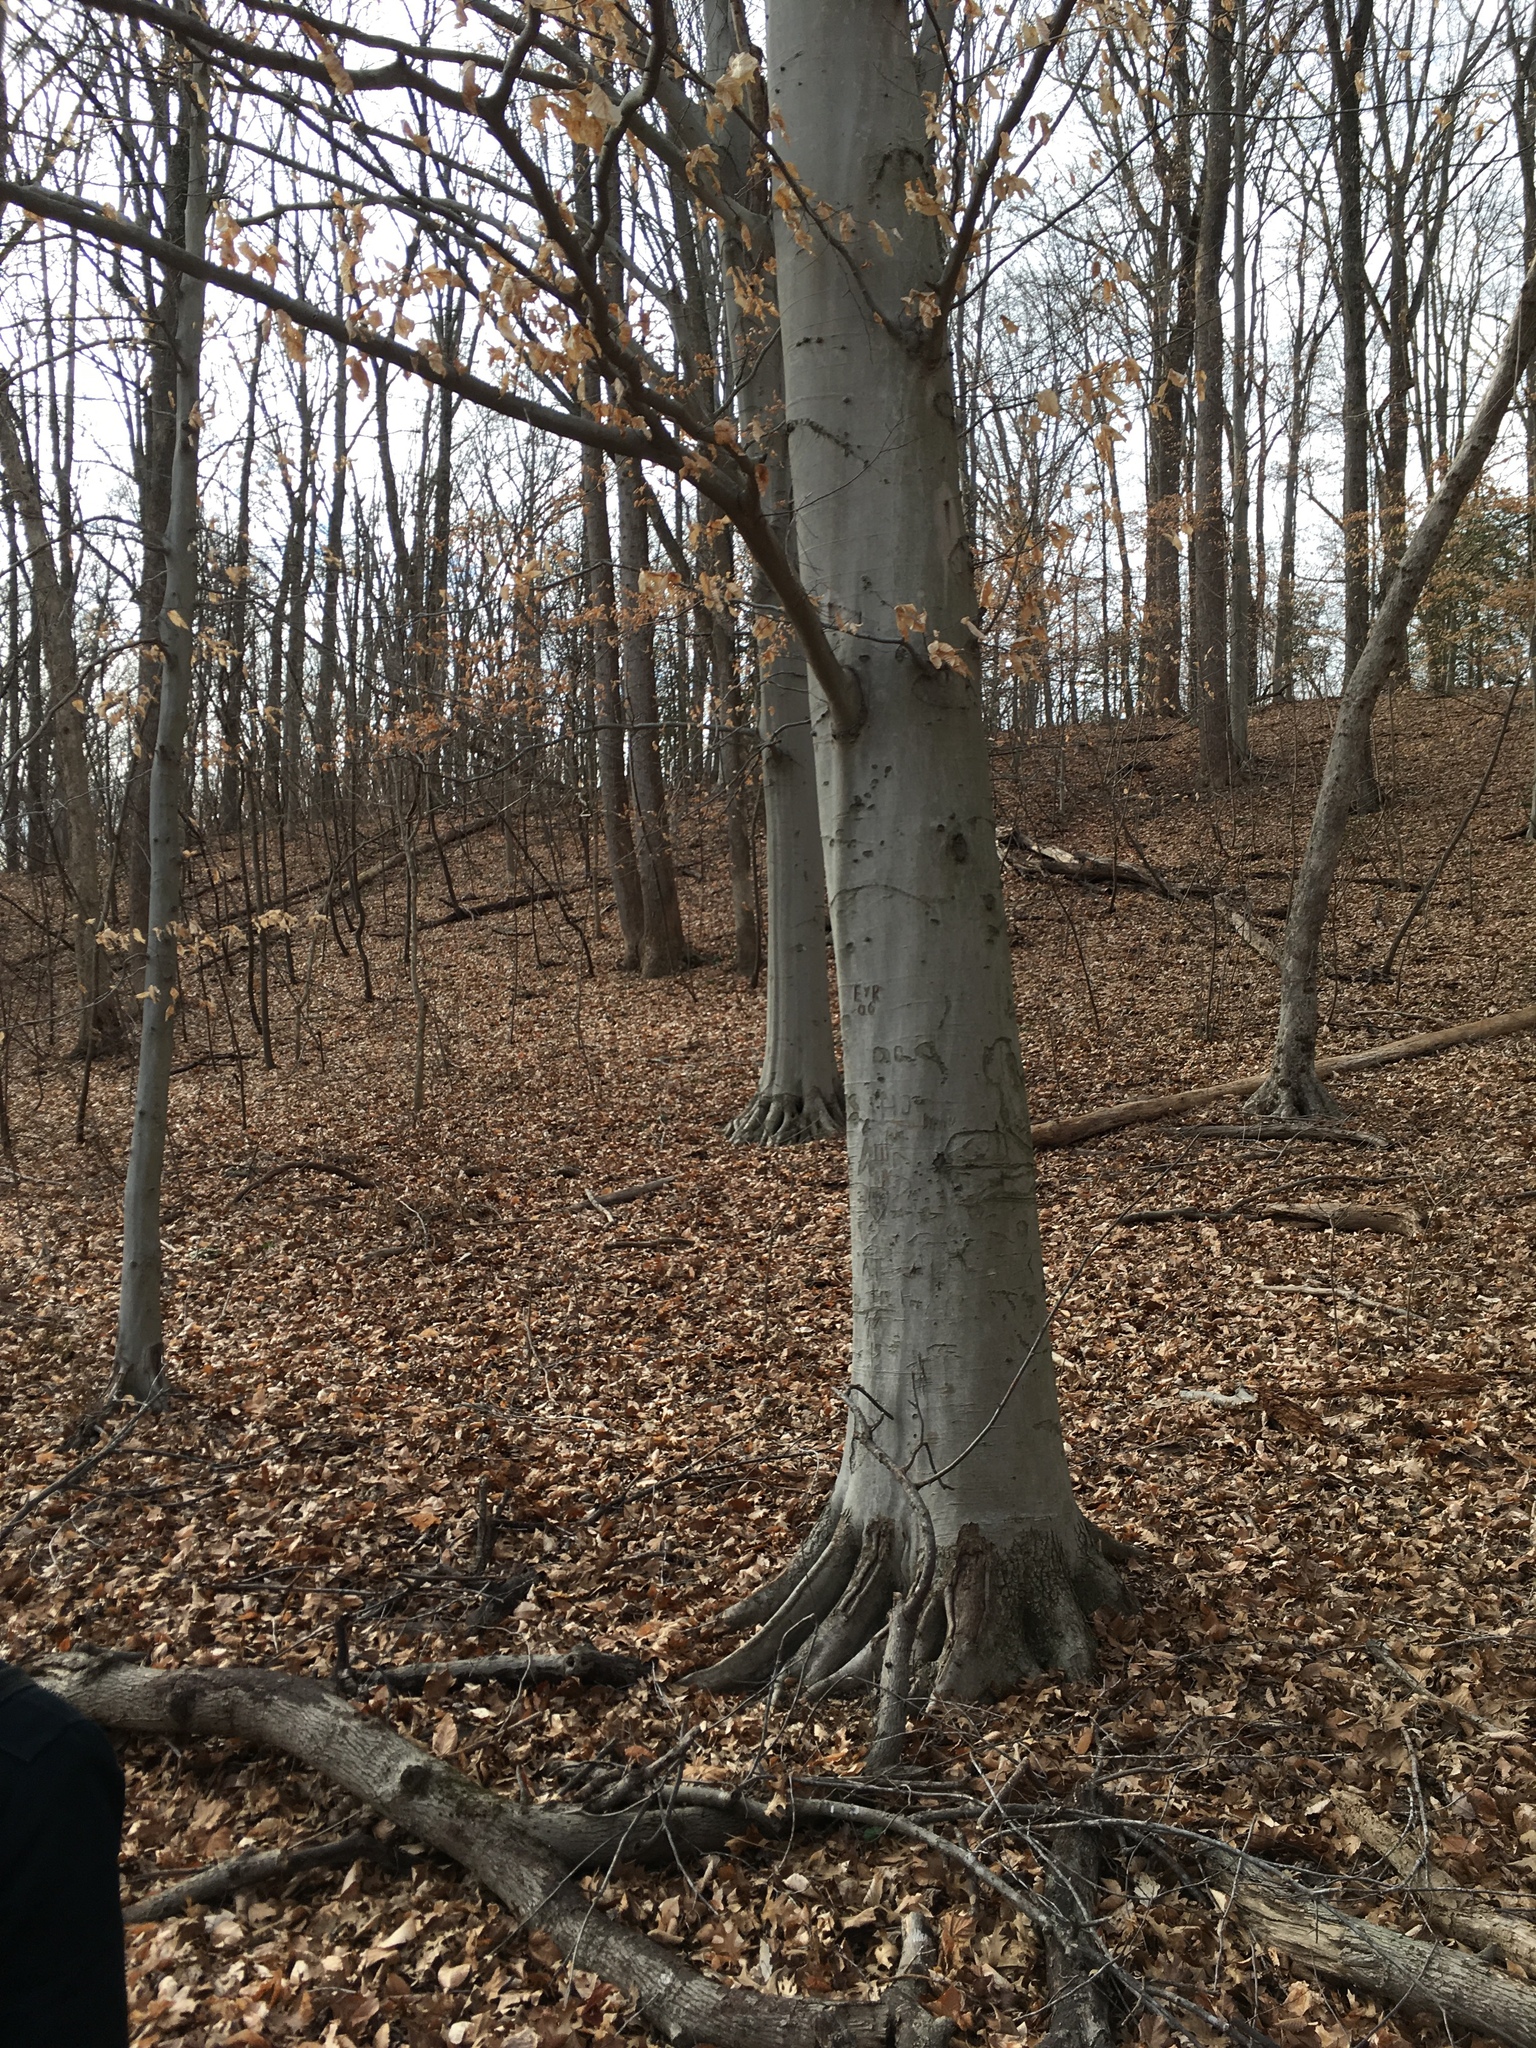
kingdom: Plantae
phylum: Tracheophyta
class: Magnoliopsida
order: Fagales
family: Fagaceae
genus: Fagus
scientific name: Fagus grandifolia
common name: American beech
